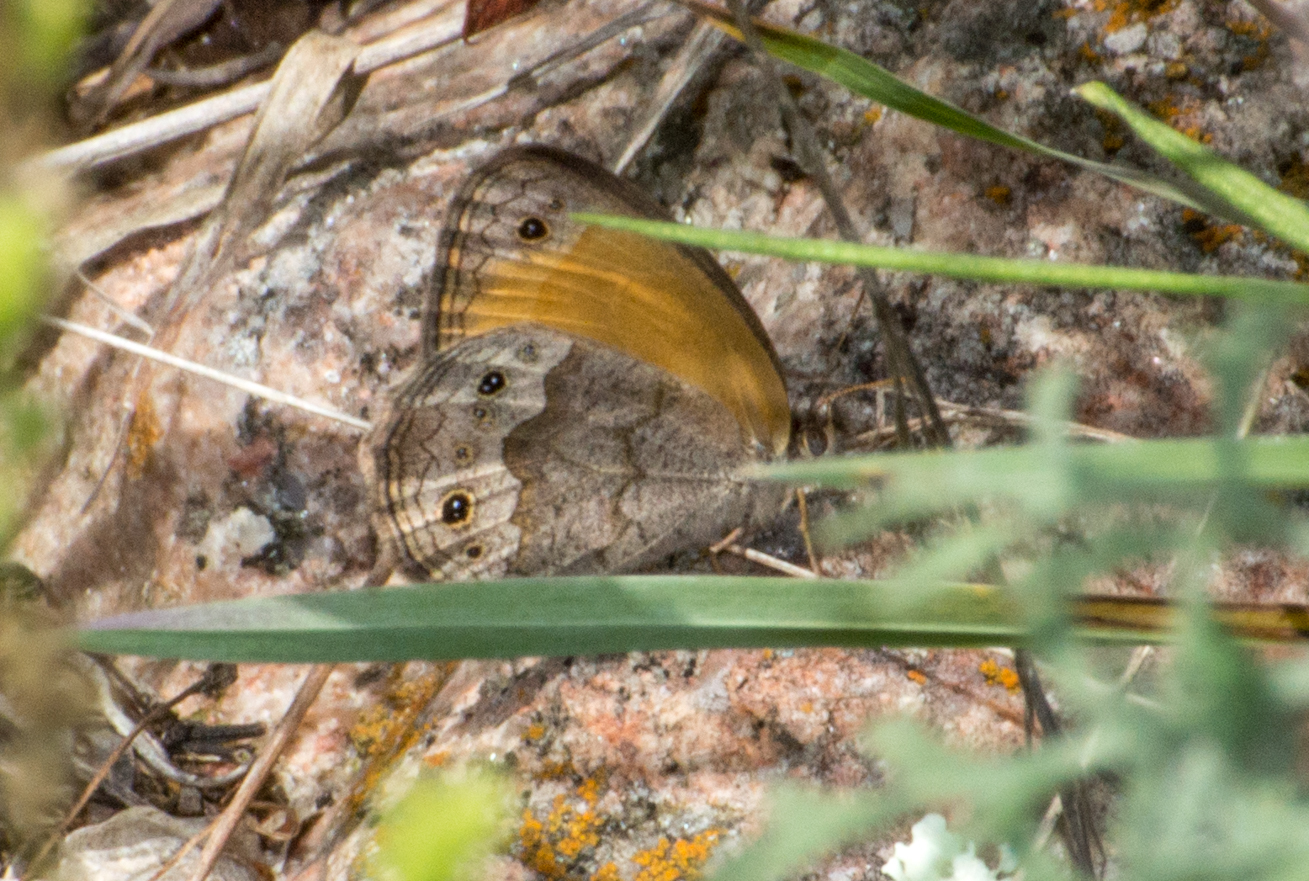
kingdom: Animalia
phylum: Arthropoda
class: Insecta
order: Lepidoptera
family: Nymphalidae
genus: Pharneuptychia
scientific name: Pharneuptychia phares
